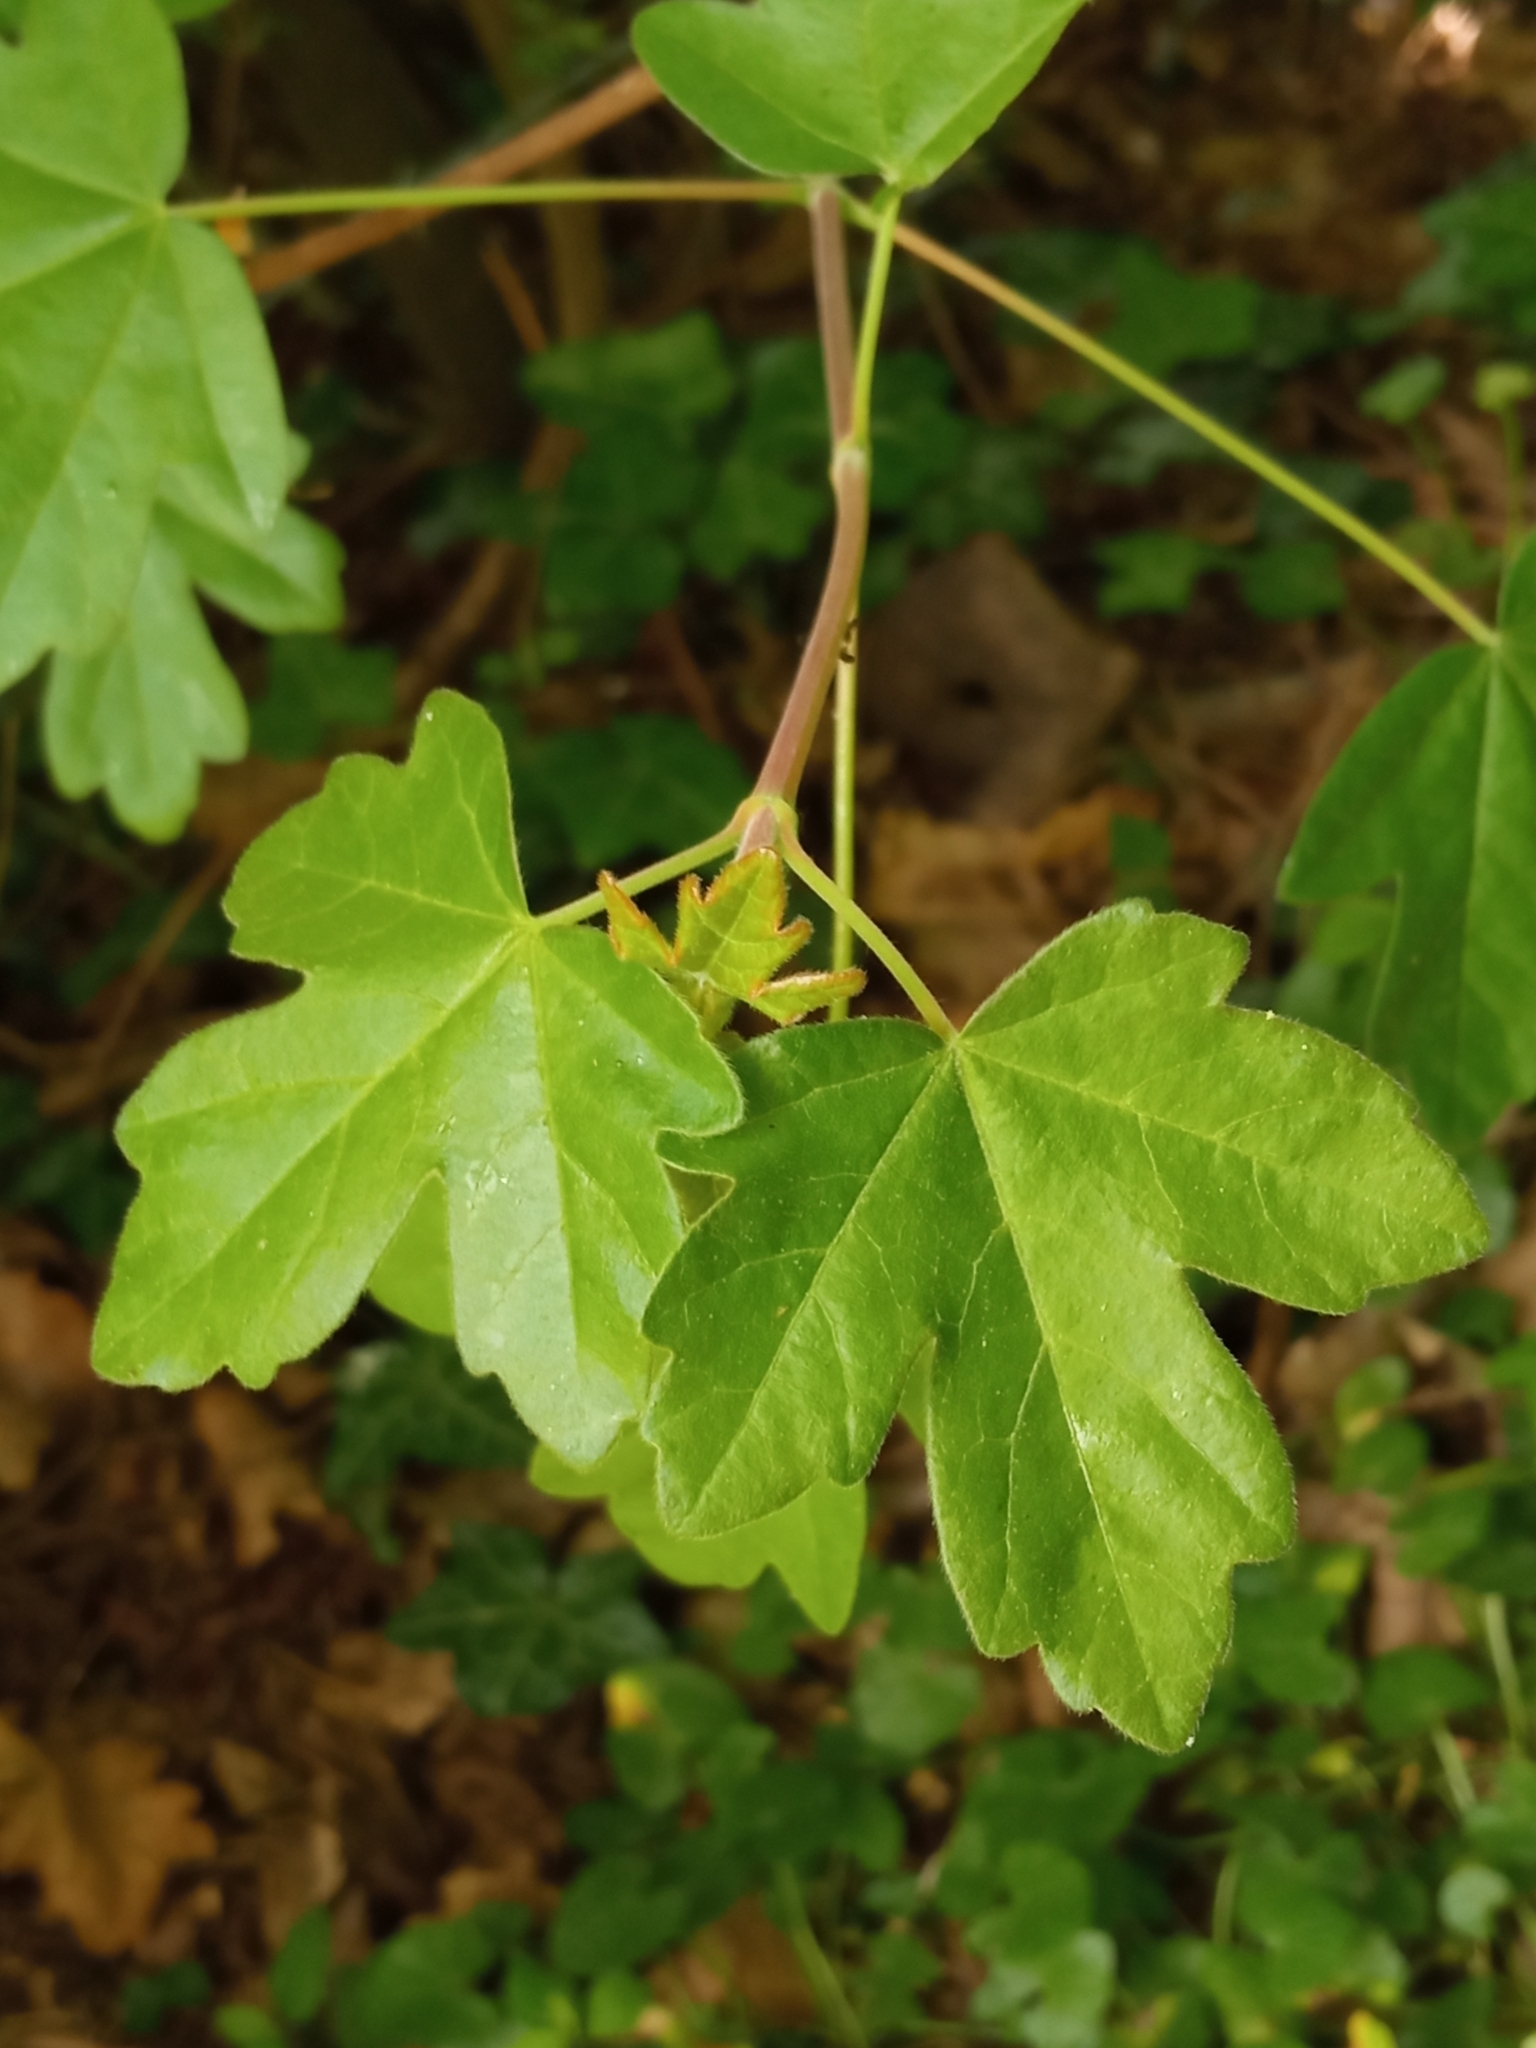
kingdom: Plantae
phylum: Tracheophyta
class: Magnoliopsida
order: Sapindales
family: Sapindaceae
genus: Acer
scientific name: Acer campestre
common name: Field maple
